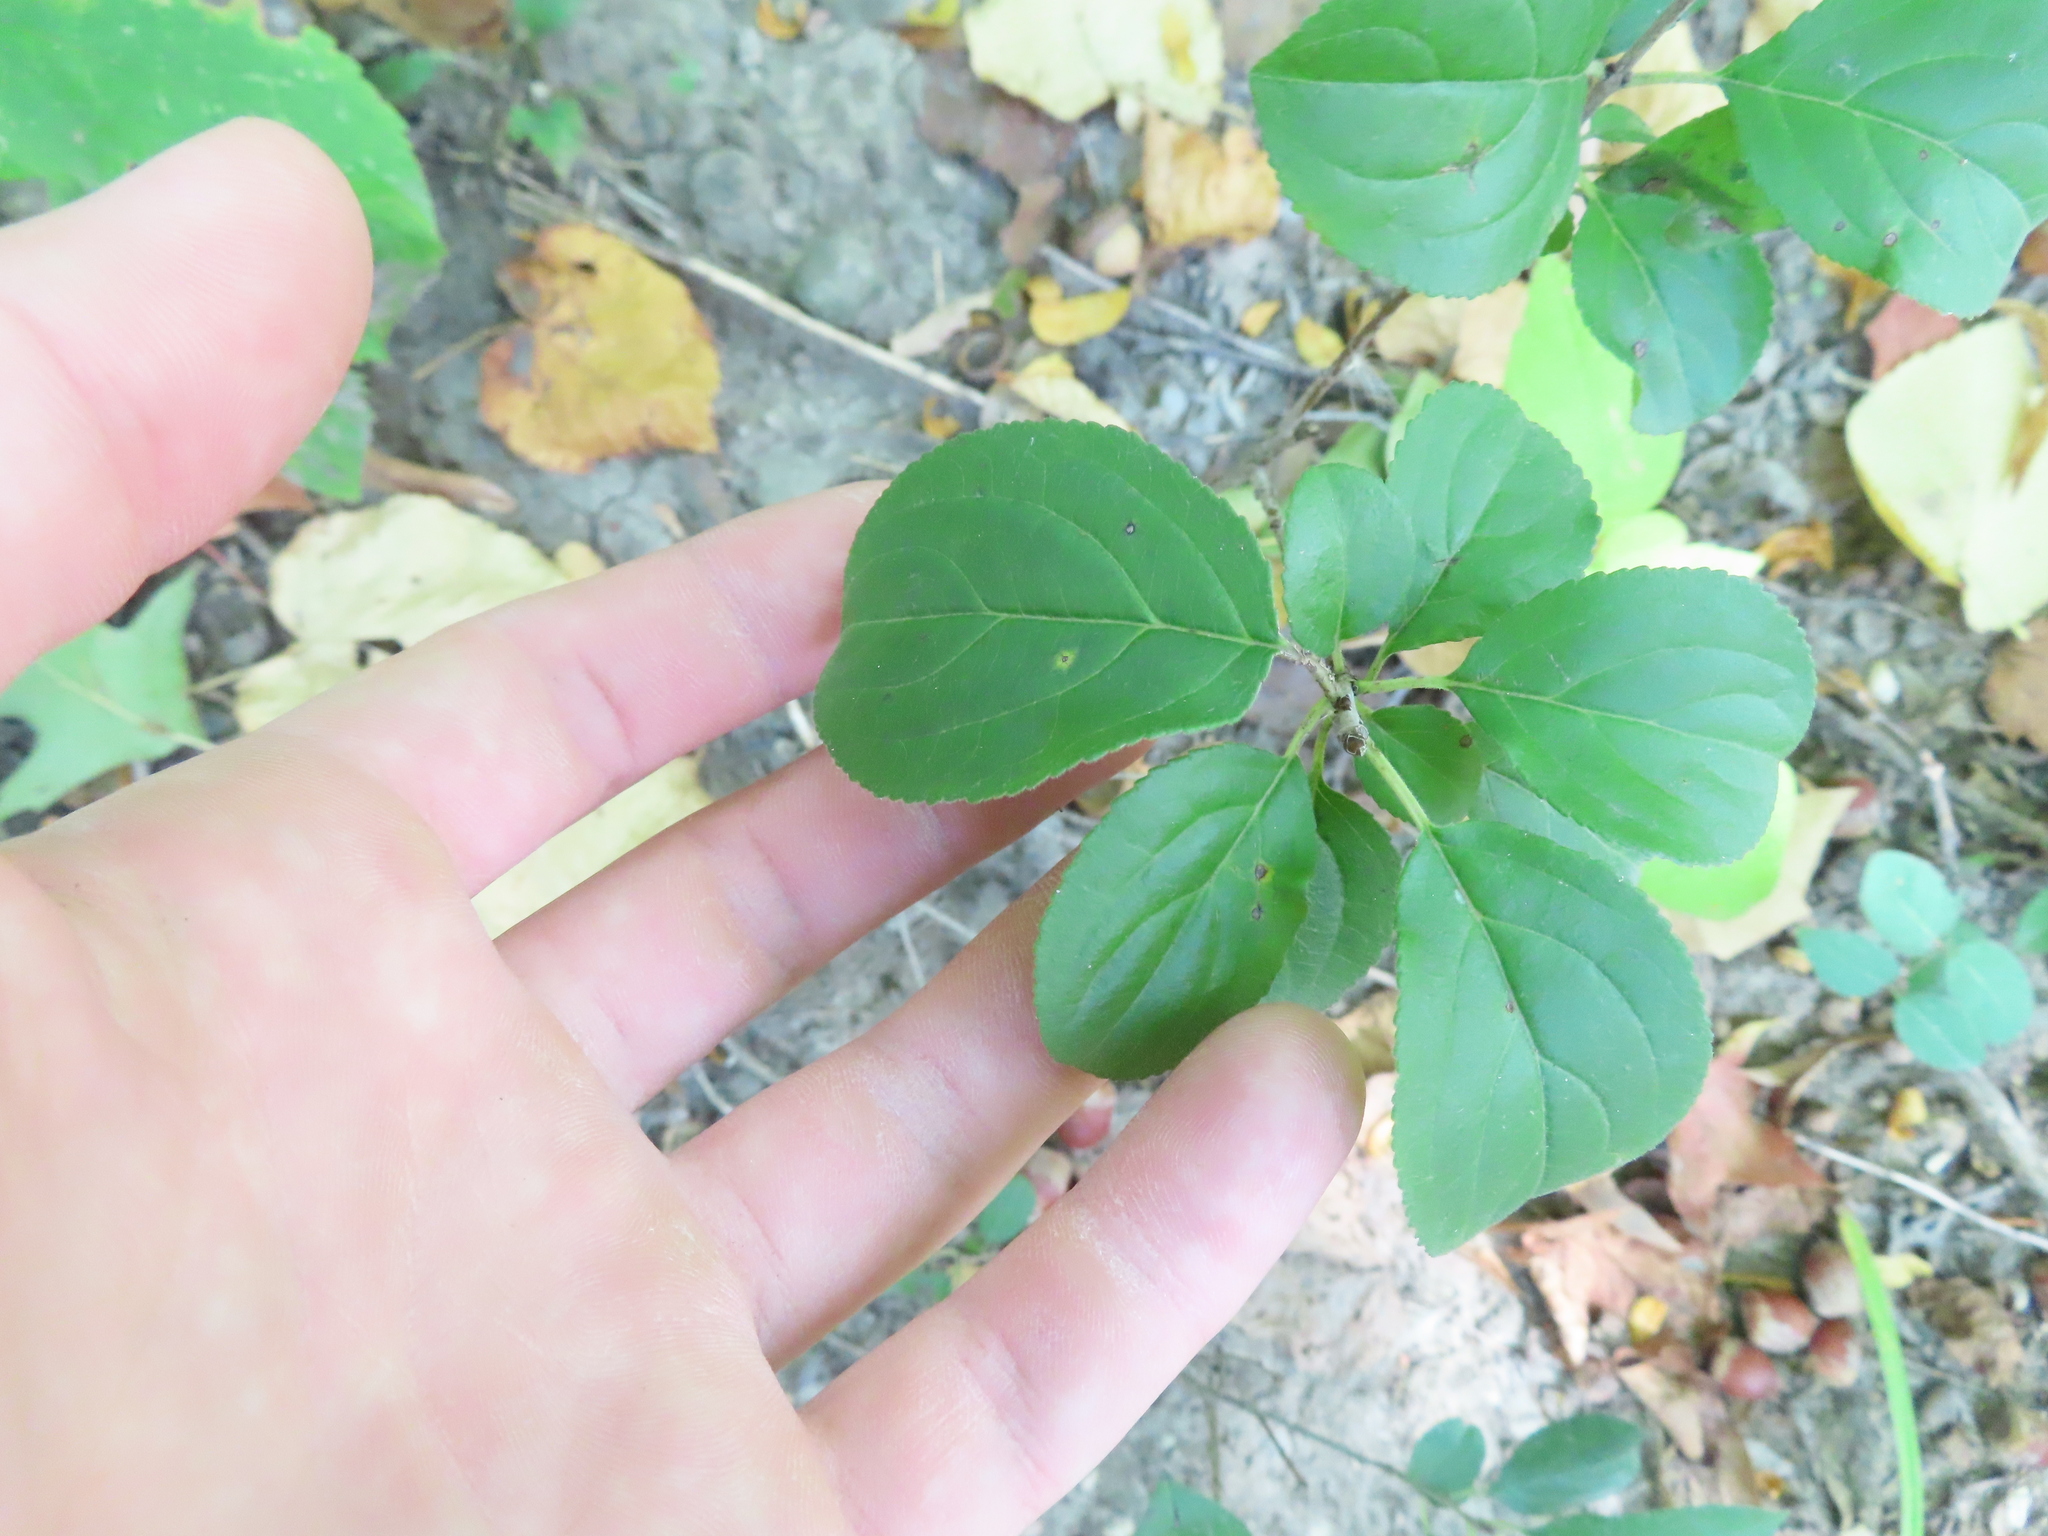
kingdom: Plantae
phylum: Tracheophyta
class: Magnoliopsida
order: Rosales
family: Rhamnaceae
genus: Rhamnus
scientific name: Rhamnus cathartica
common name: Common buckthorn
